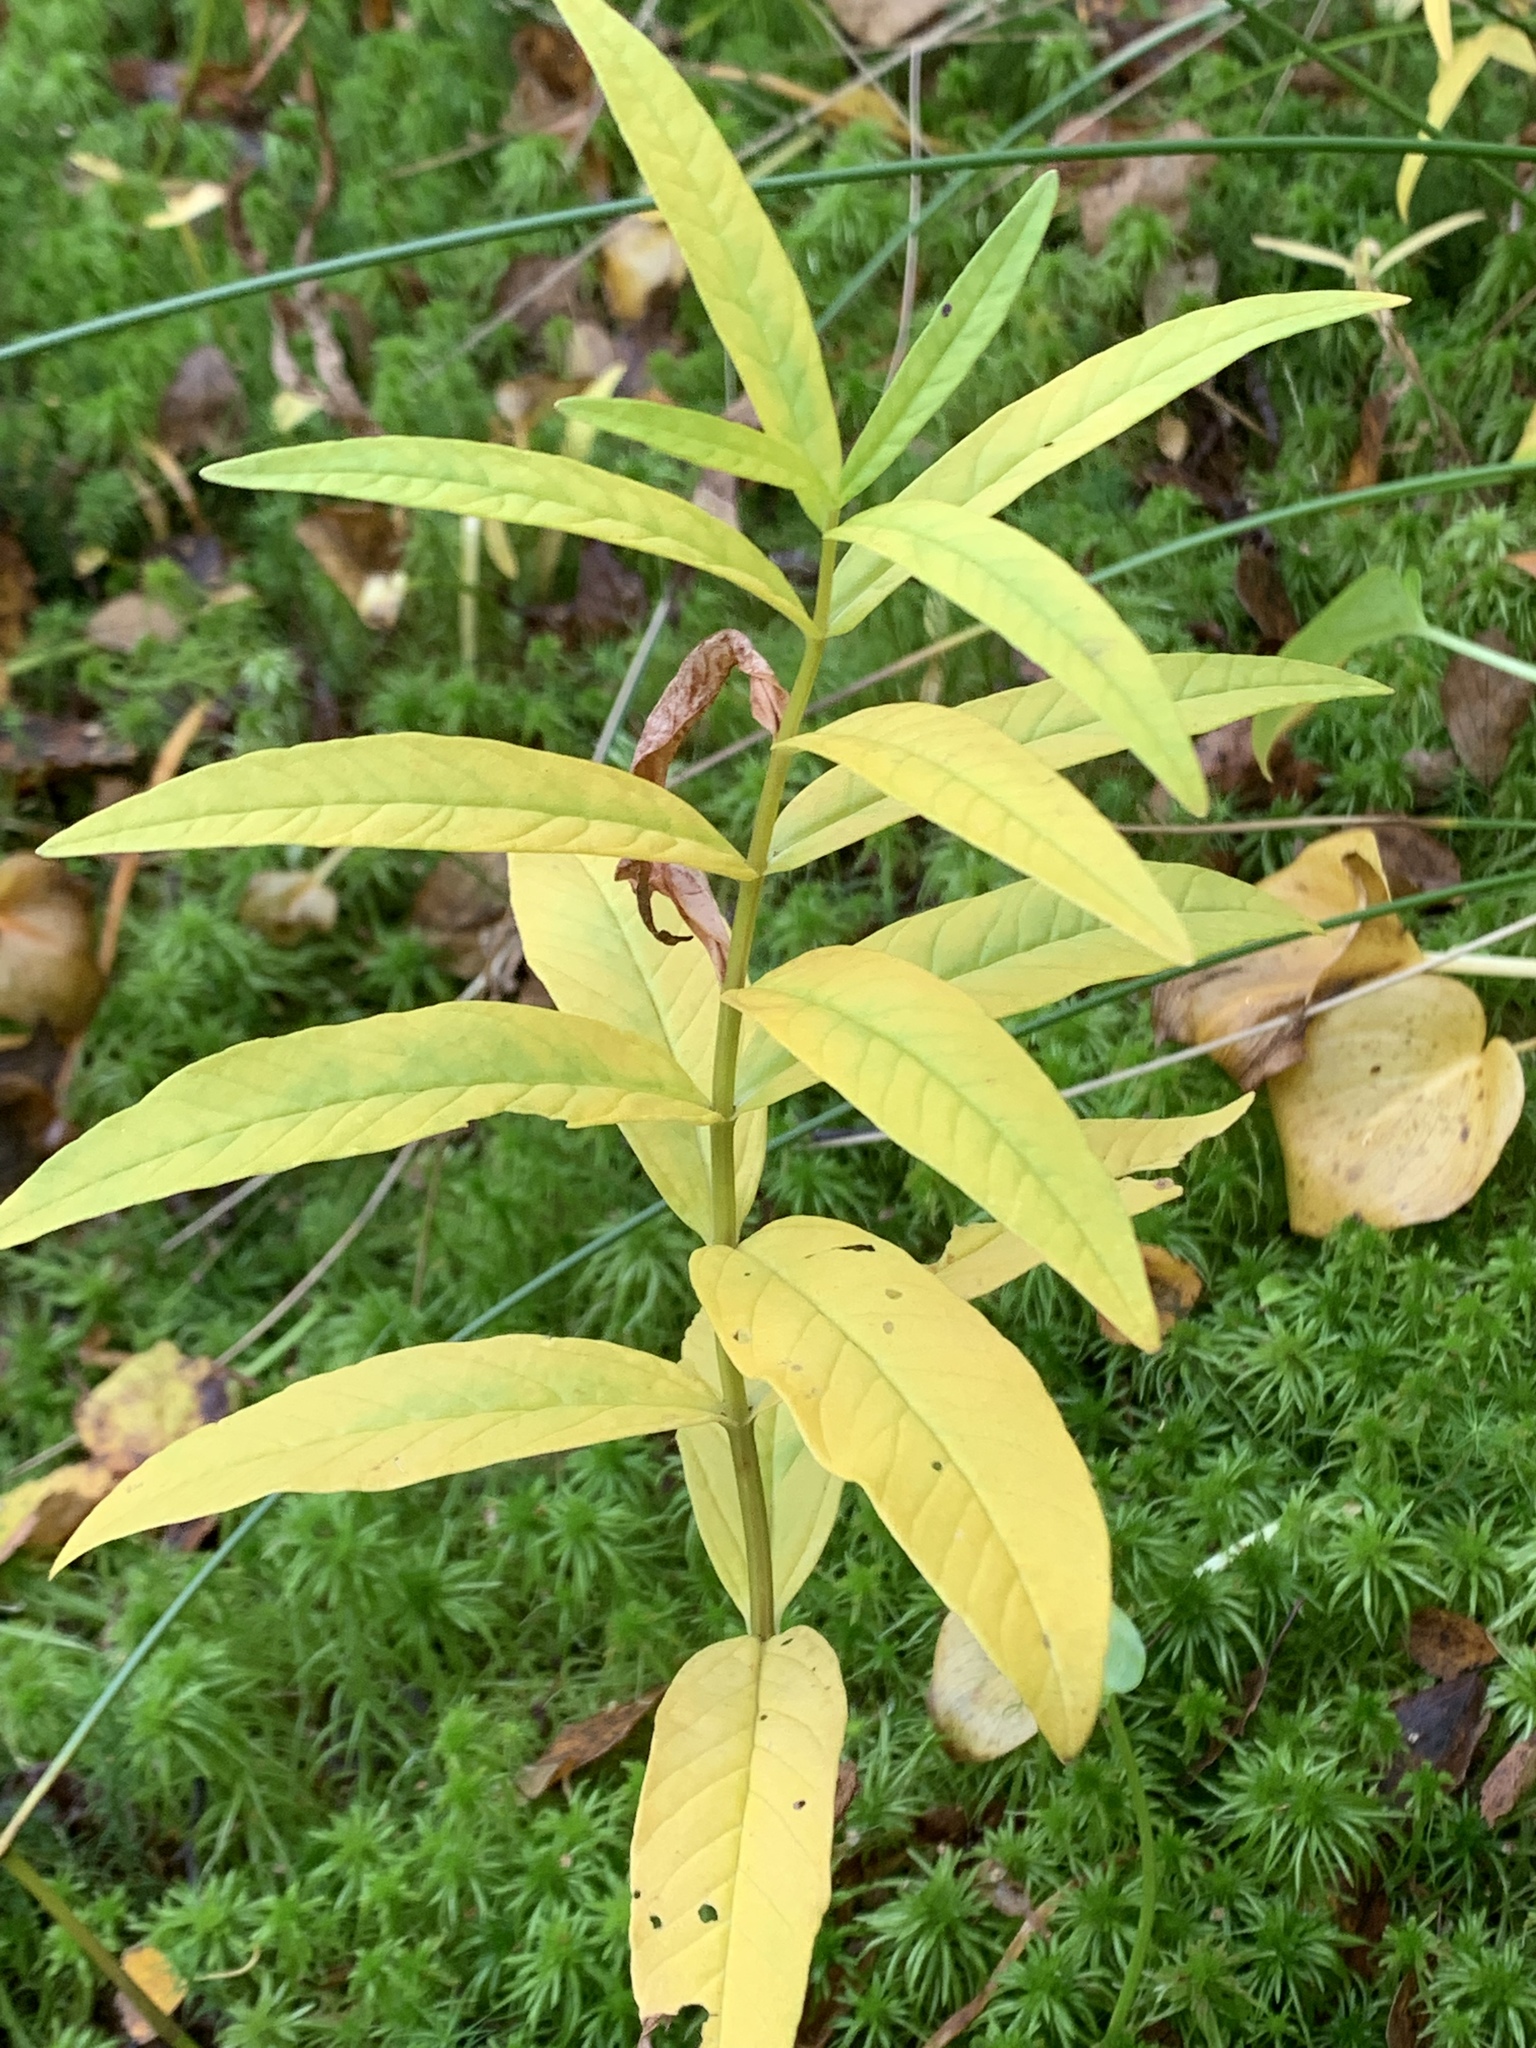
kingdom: Plantae
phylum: Tracheophyta
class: Magnoliopsida
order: Ericales
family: Primulaceae
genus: Lysimachia
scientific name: Lysimachia vulgaris
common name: Yellow loosestrife
